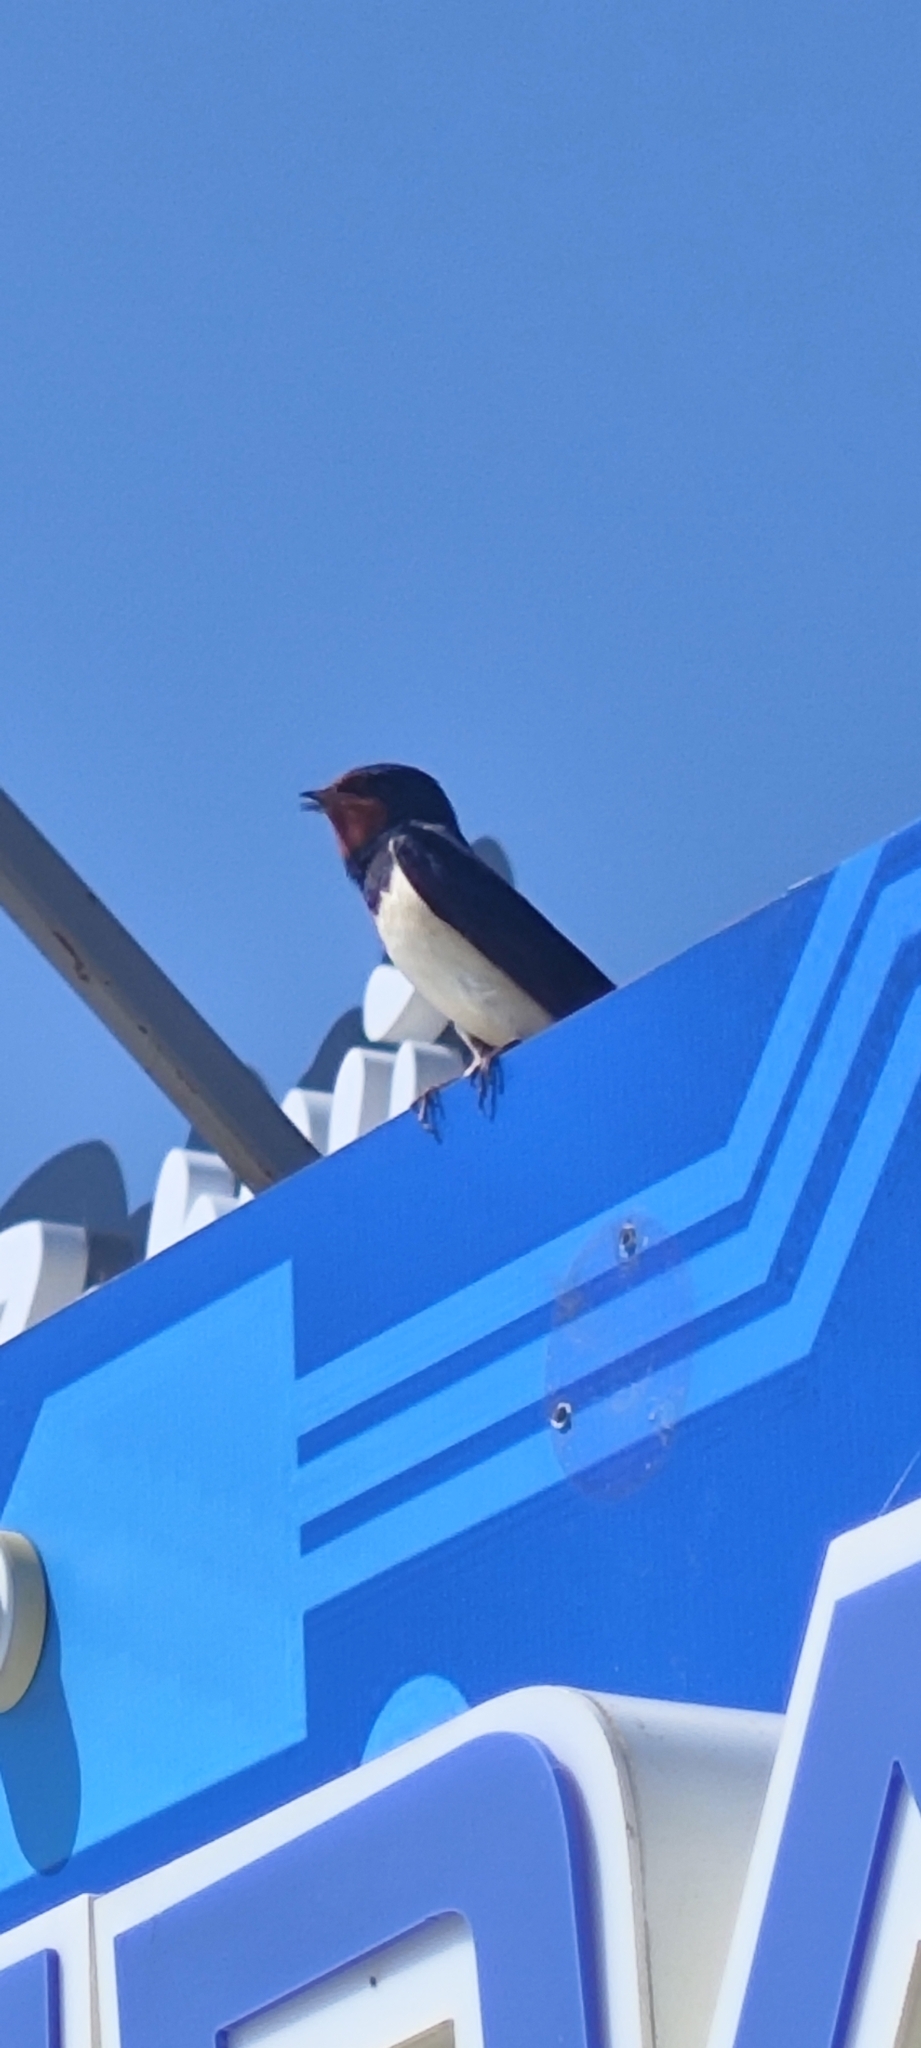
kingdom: Animalia
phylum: Chordata
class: Aves
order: Passeriformes
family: Hirundinidae
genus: Hirundo
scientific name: Hirundo rustica
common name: Barn swallow
